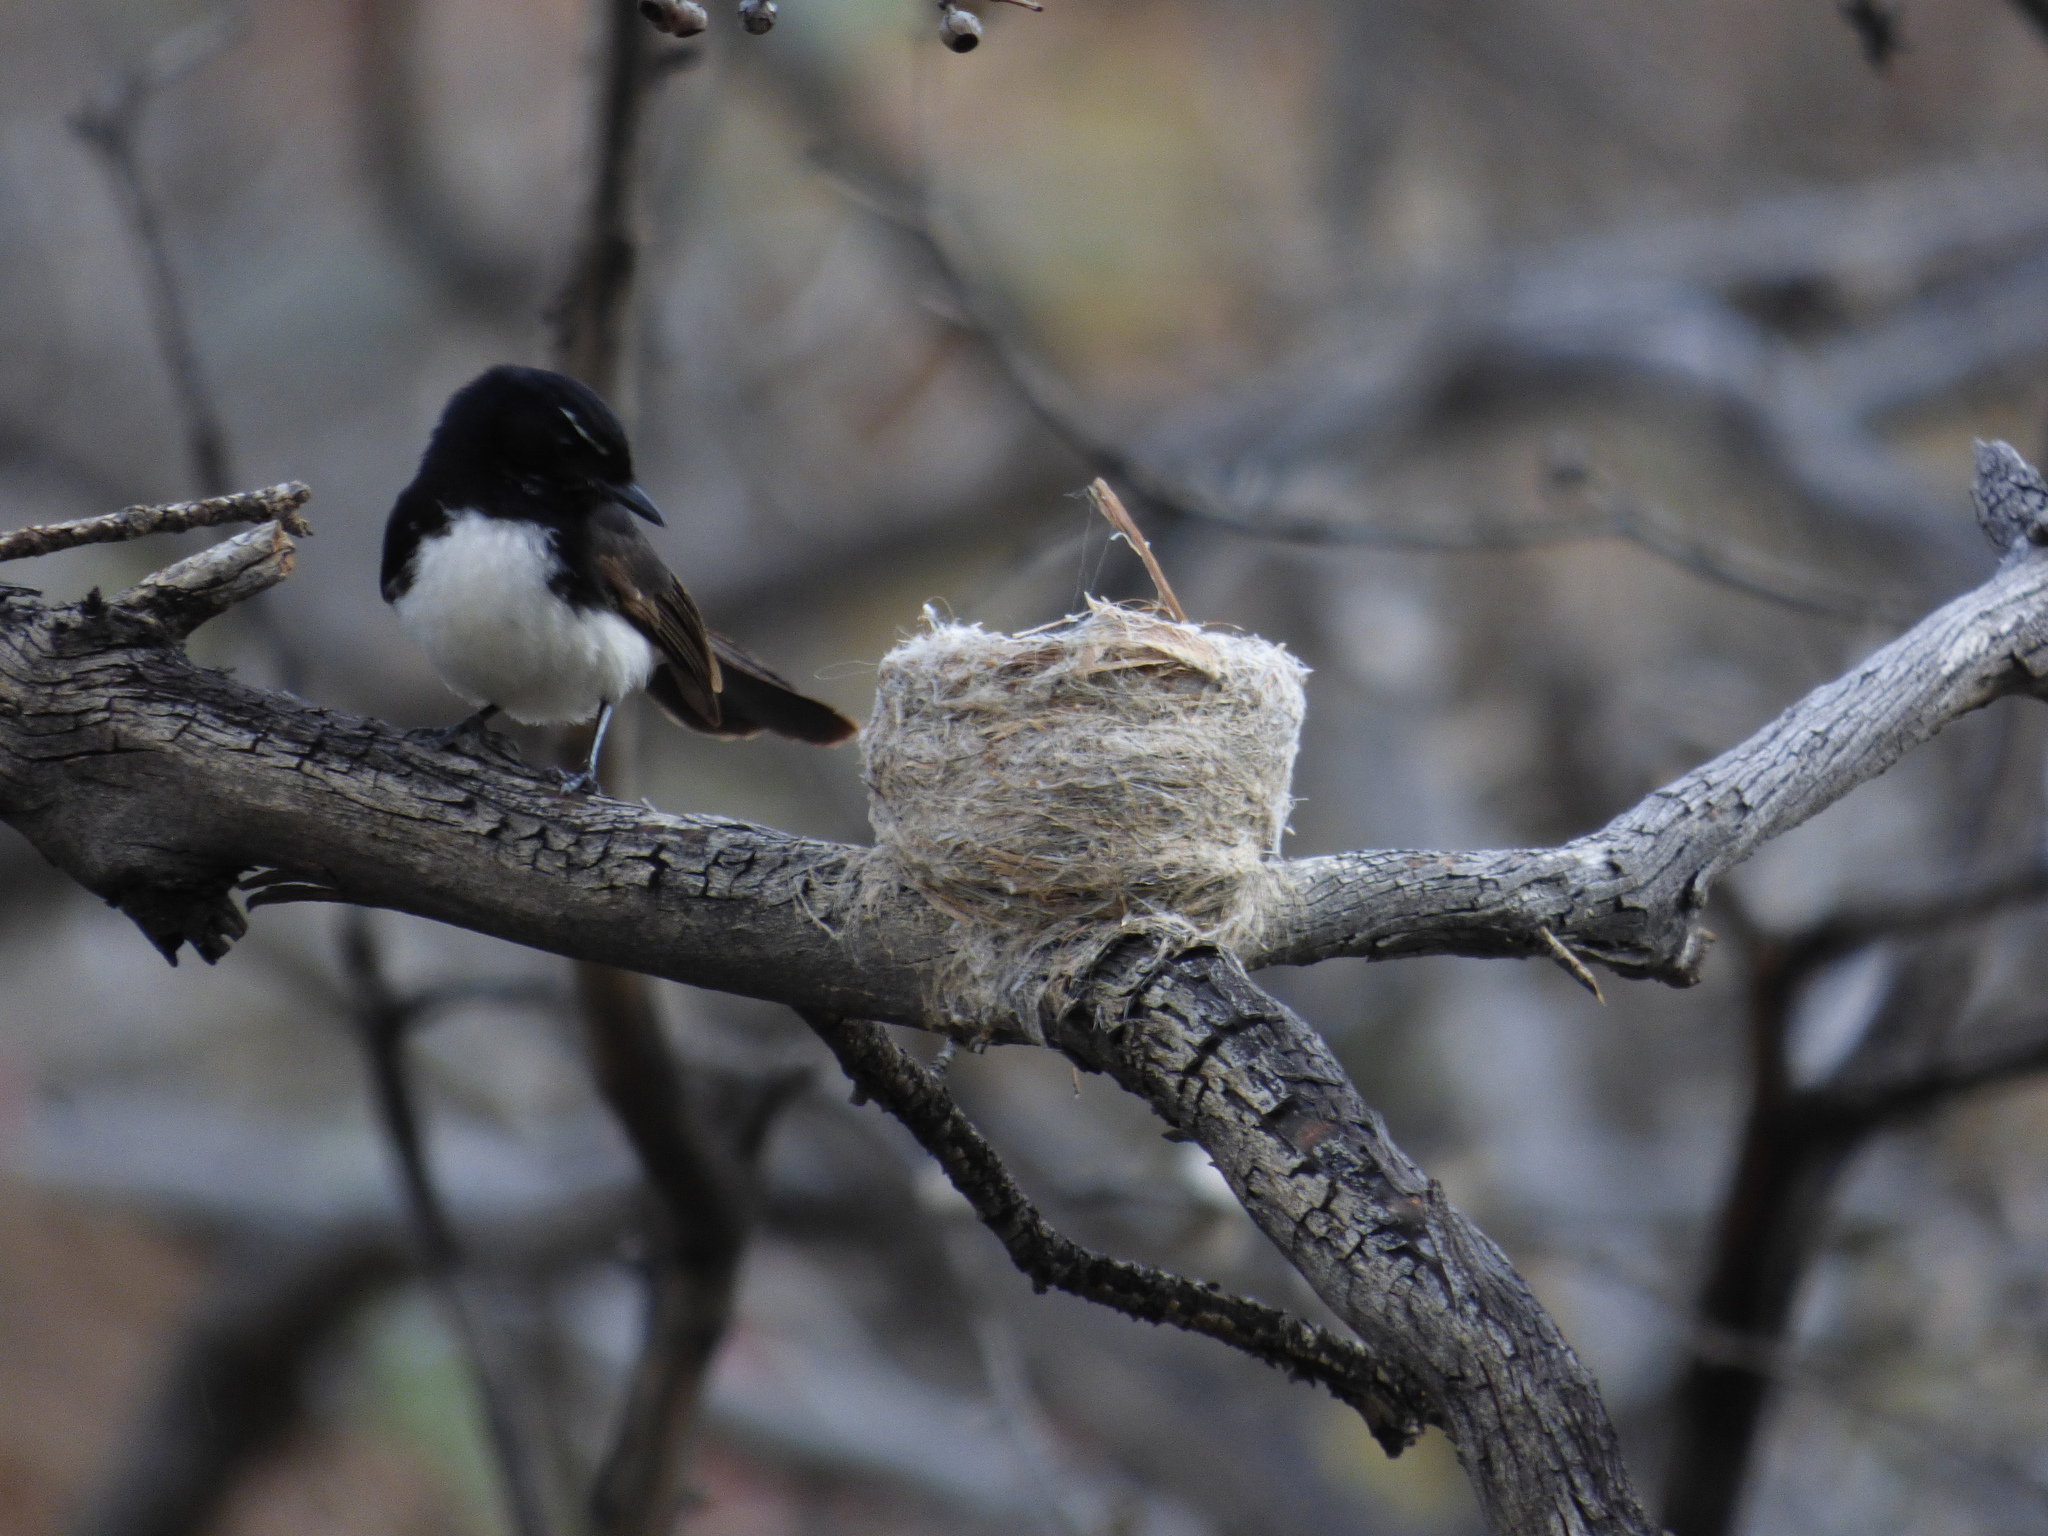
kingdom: Animalia
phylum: Chordata
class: Aves
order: Passeriformes
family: Rhipiduridae
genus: Rhipidura
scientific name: Rhipidura leucophrys
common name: Willie wagtail
